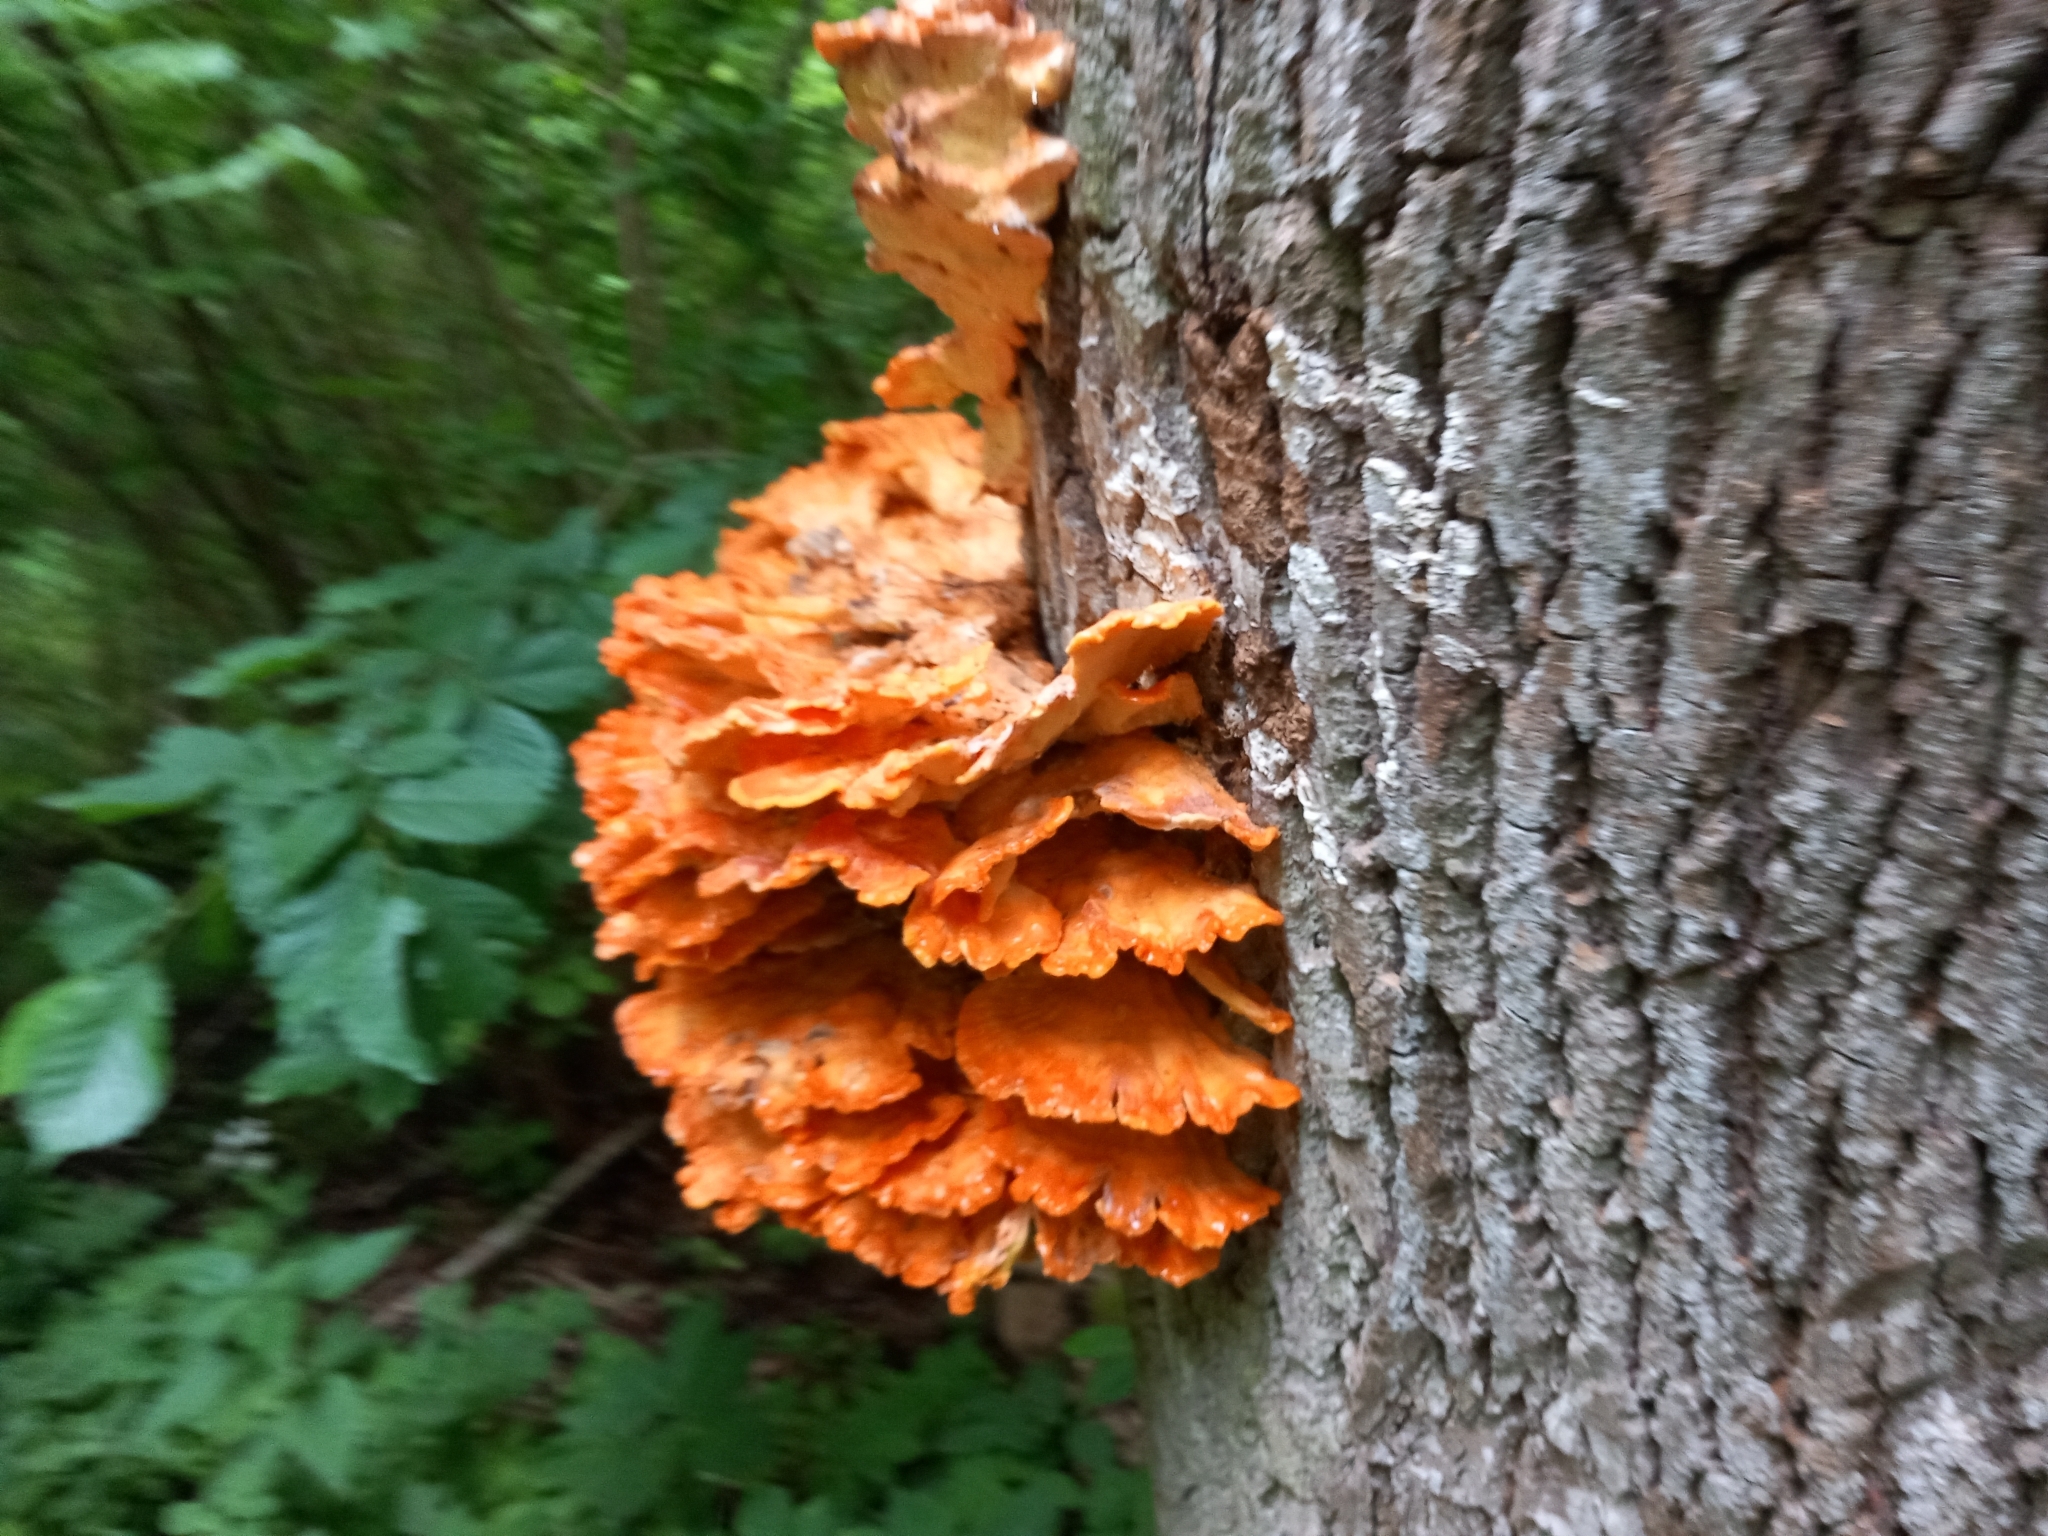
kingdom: Fungi
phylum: Basidiomycota
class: Agaricomycetes
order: Polyporales
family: Laetiporaceae
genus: Laetiporus
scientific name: Laetiporus sulphureus
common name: Chicken of the woods
